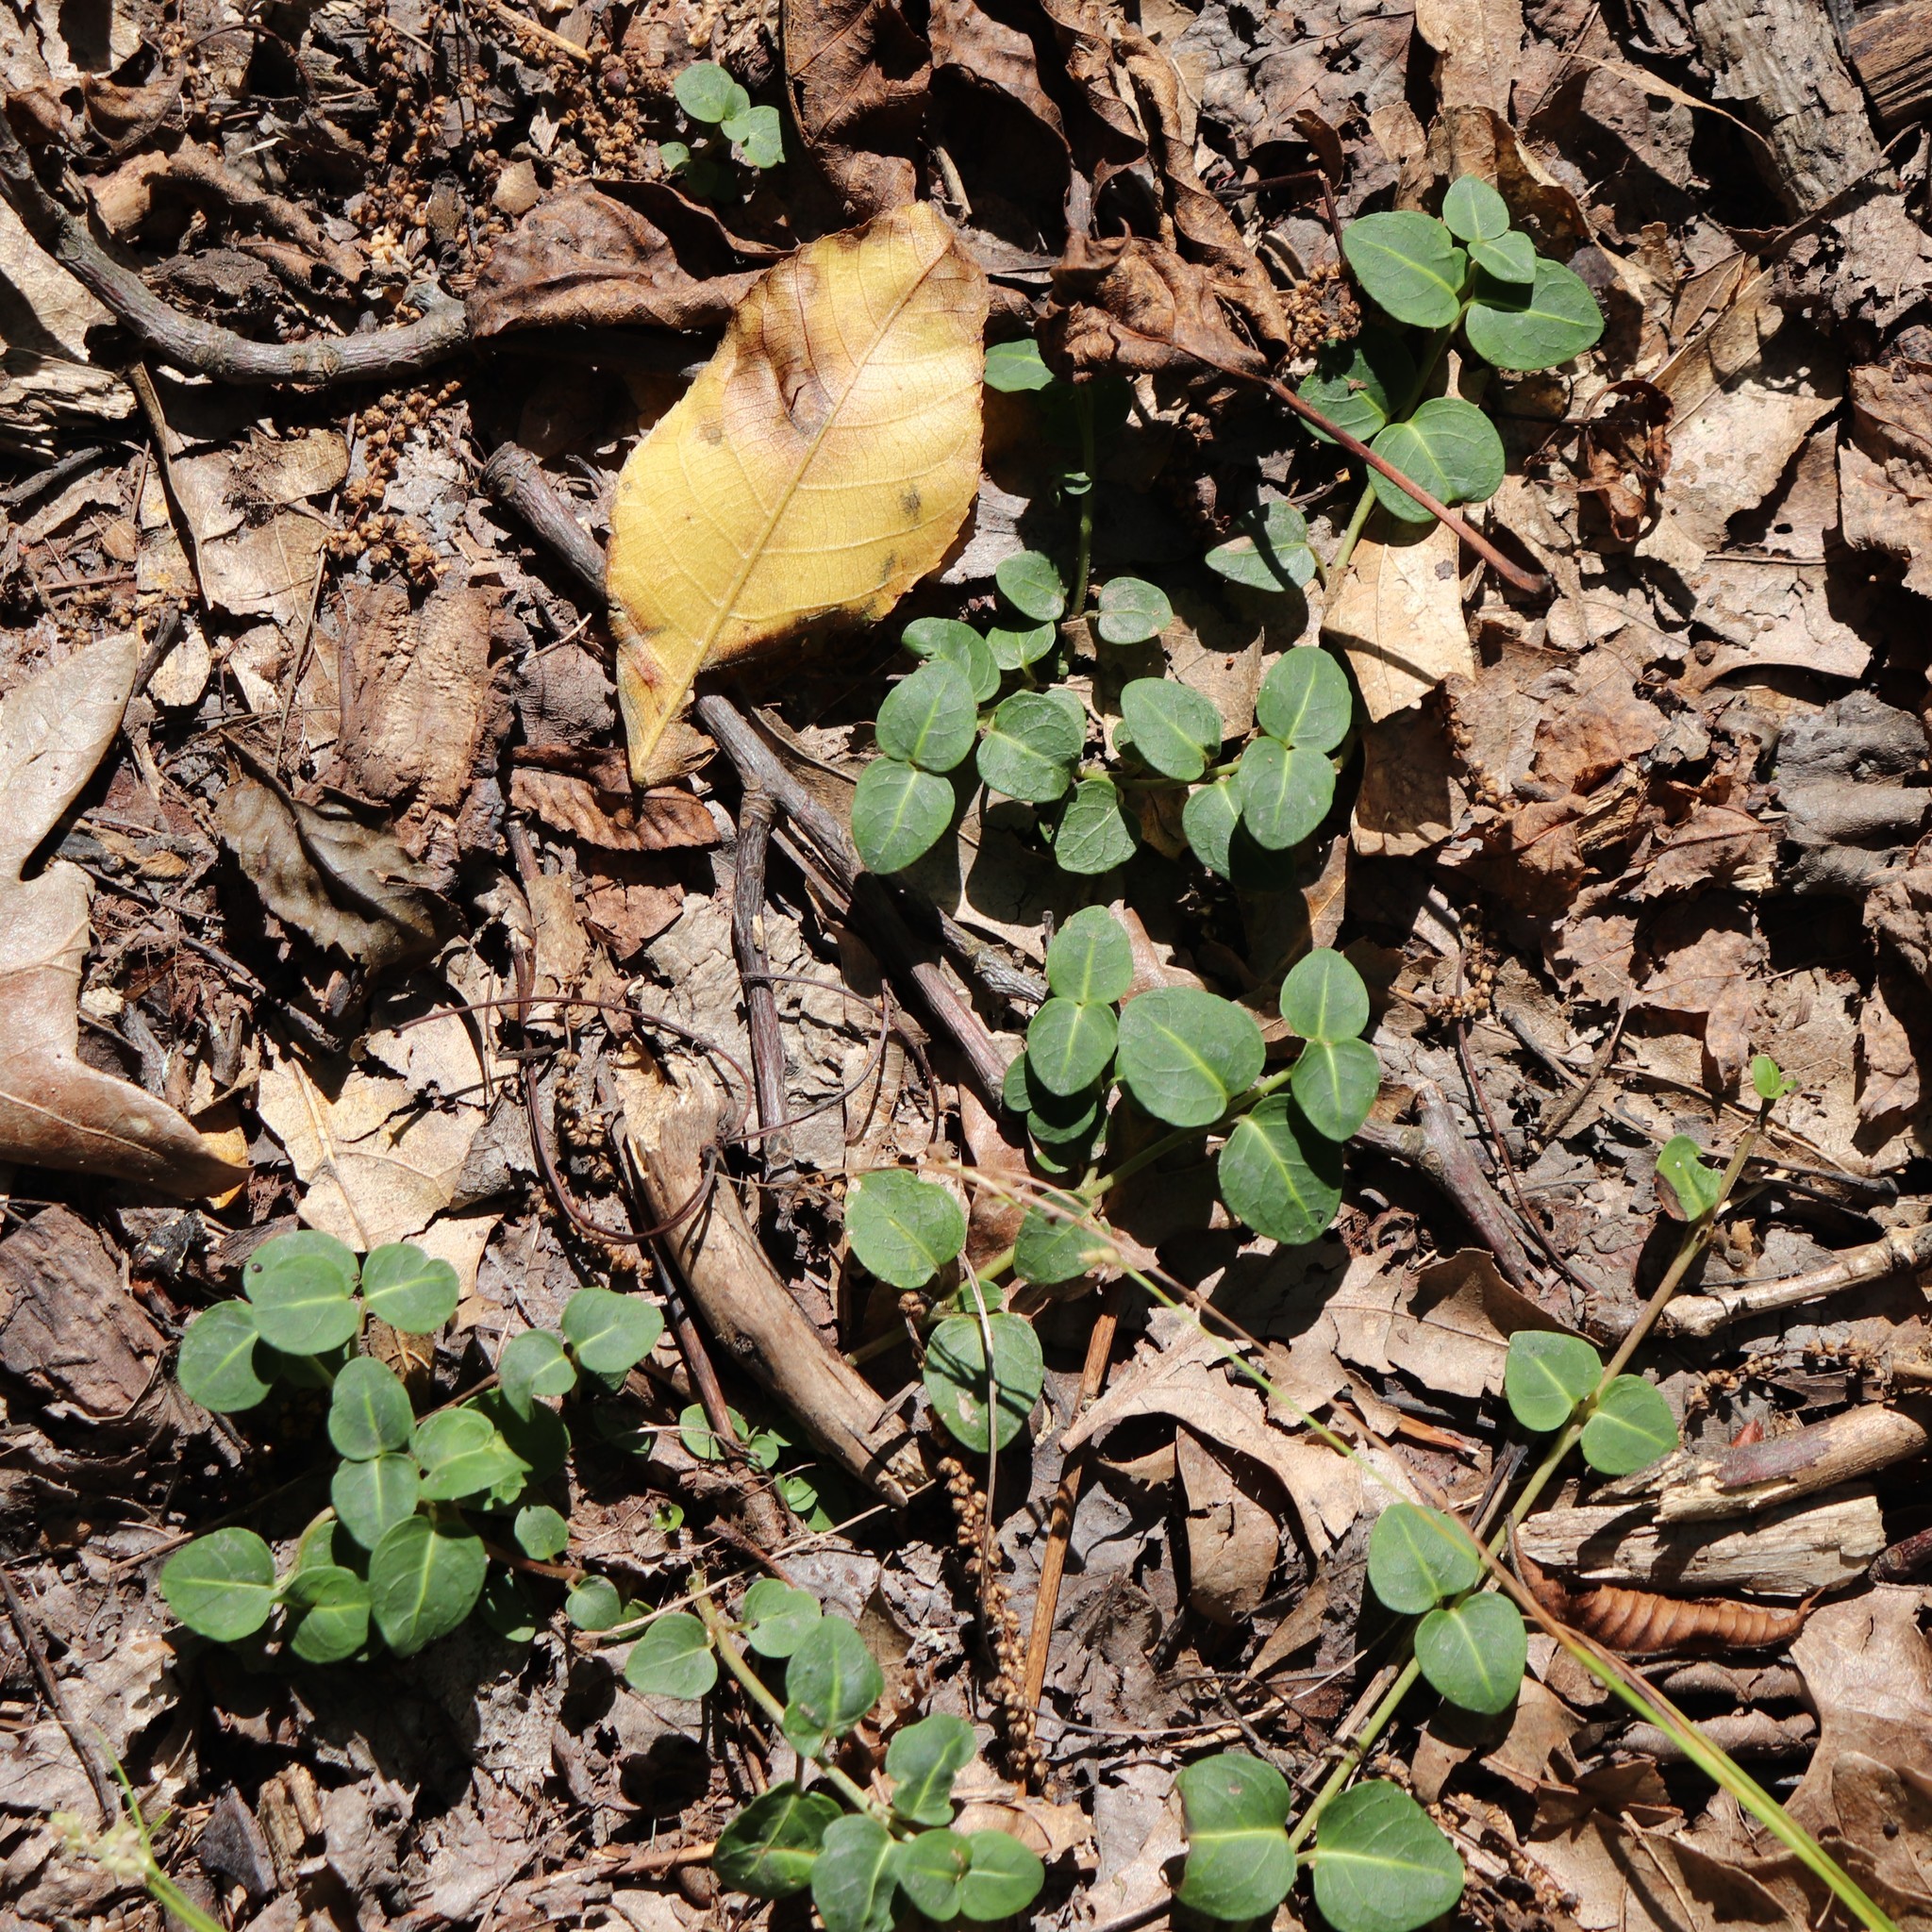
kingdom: Plantae
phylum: Tracheophyta
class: Magnoliopsida
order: Gentianales
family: Rubiaceae
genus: Mitchella
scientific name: Mitchella repens
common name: Partridge-berry
